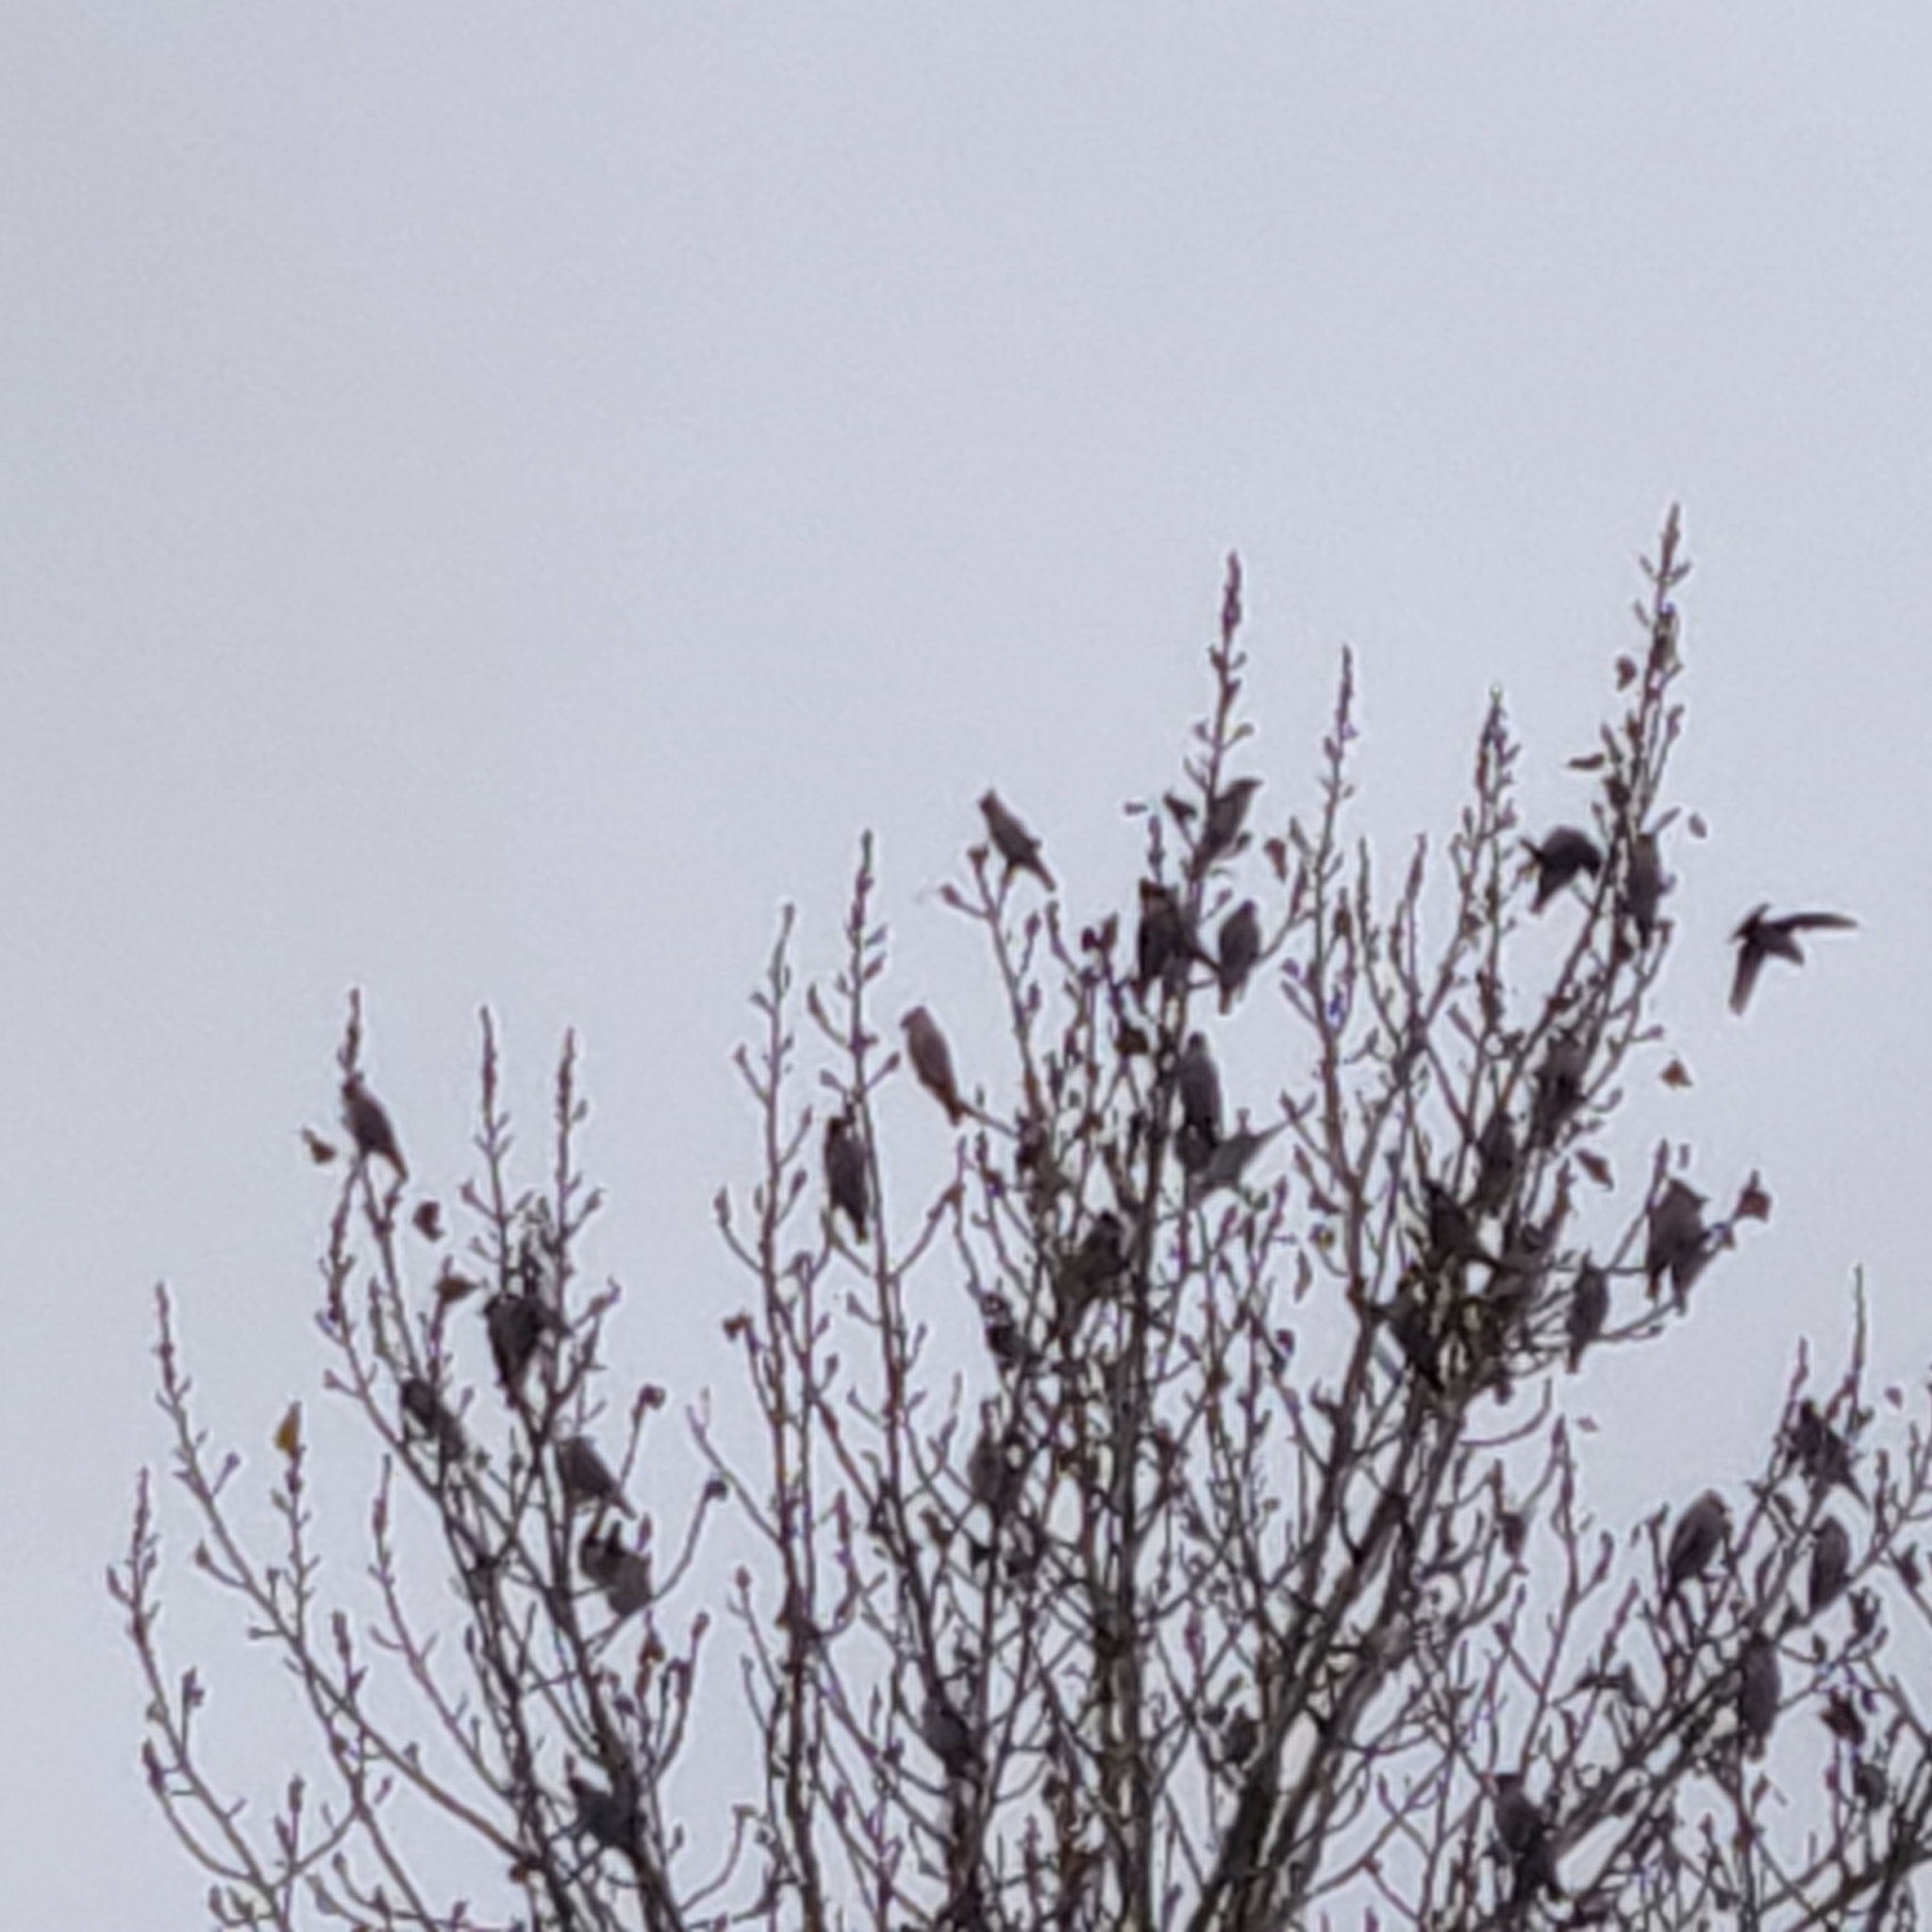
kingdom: Animalia
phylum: Chordata
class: Aves
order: Passeriformes
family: Bombycillidae
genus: Bombycilla
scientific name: Bombycilla garrulus
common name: Bohemian waxwing
